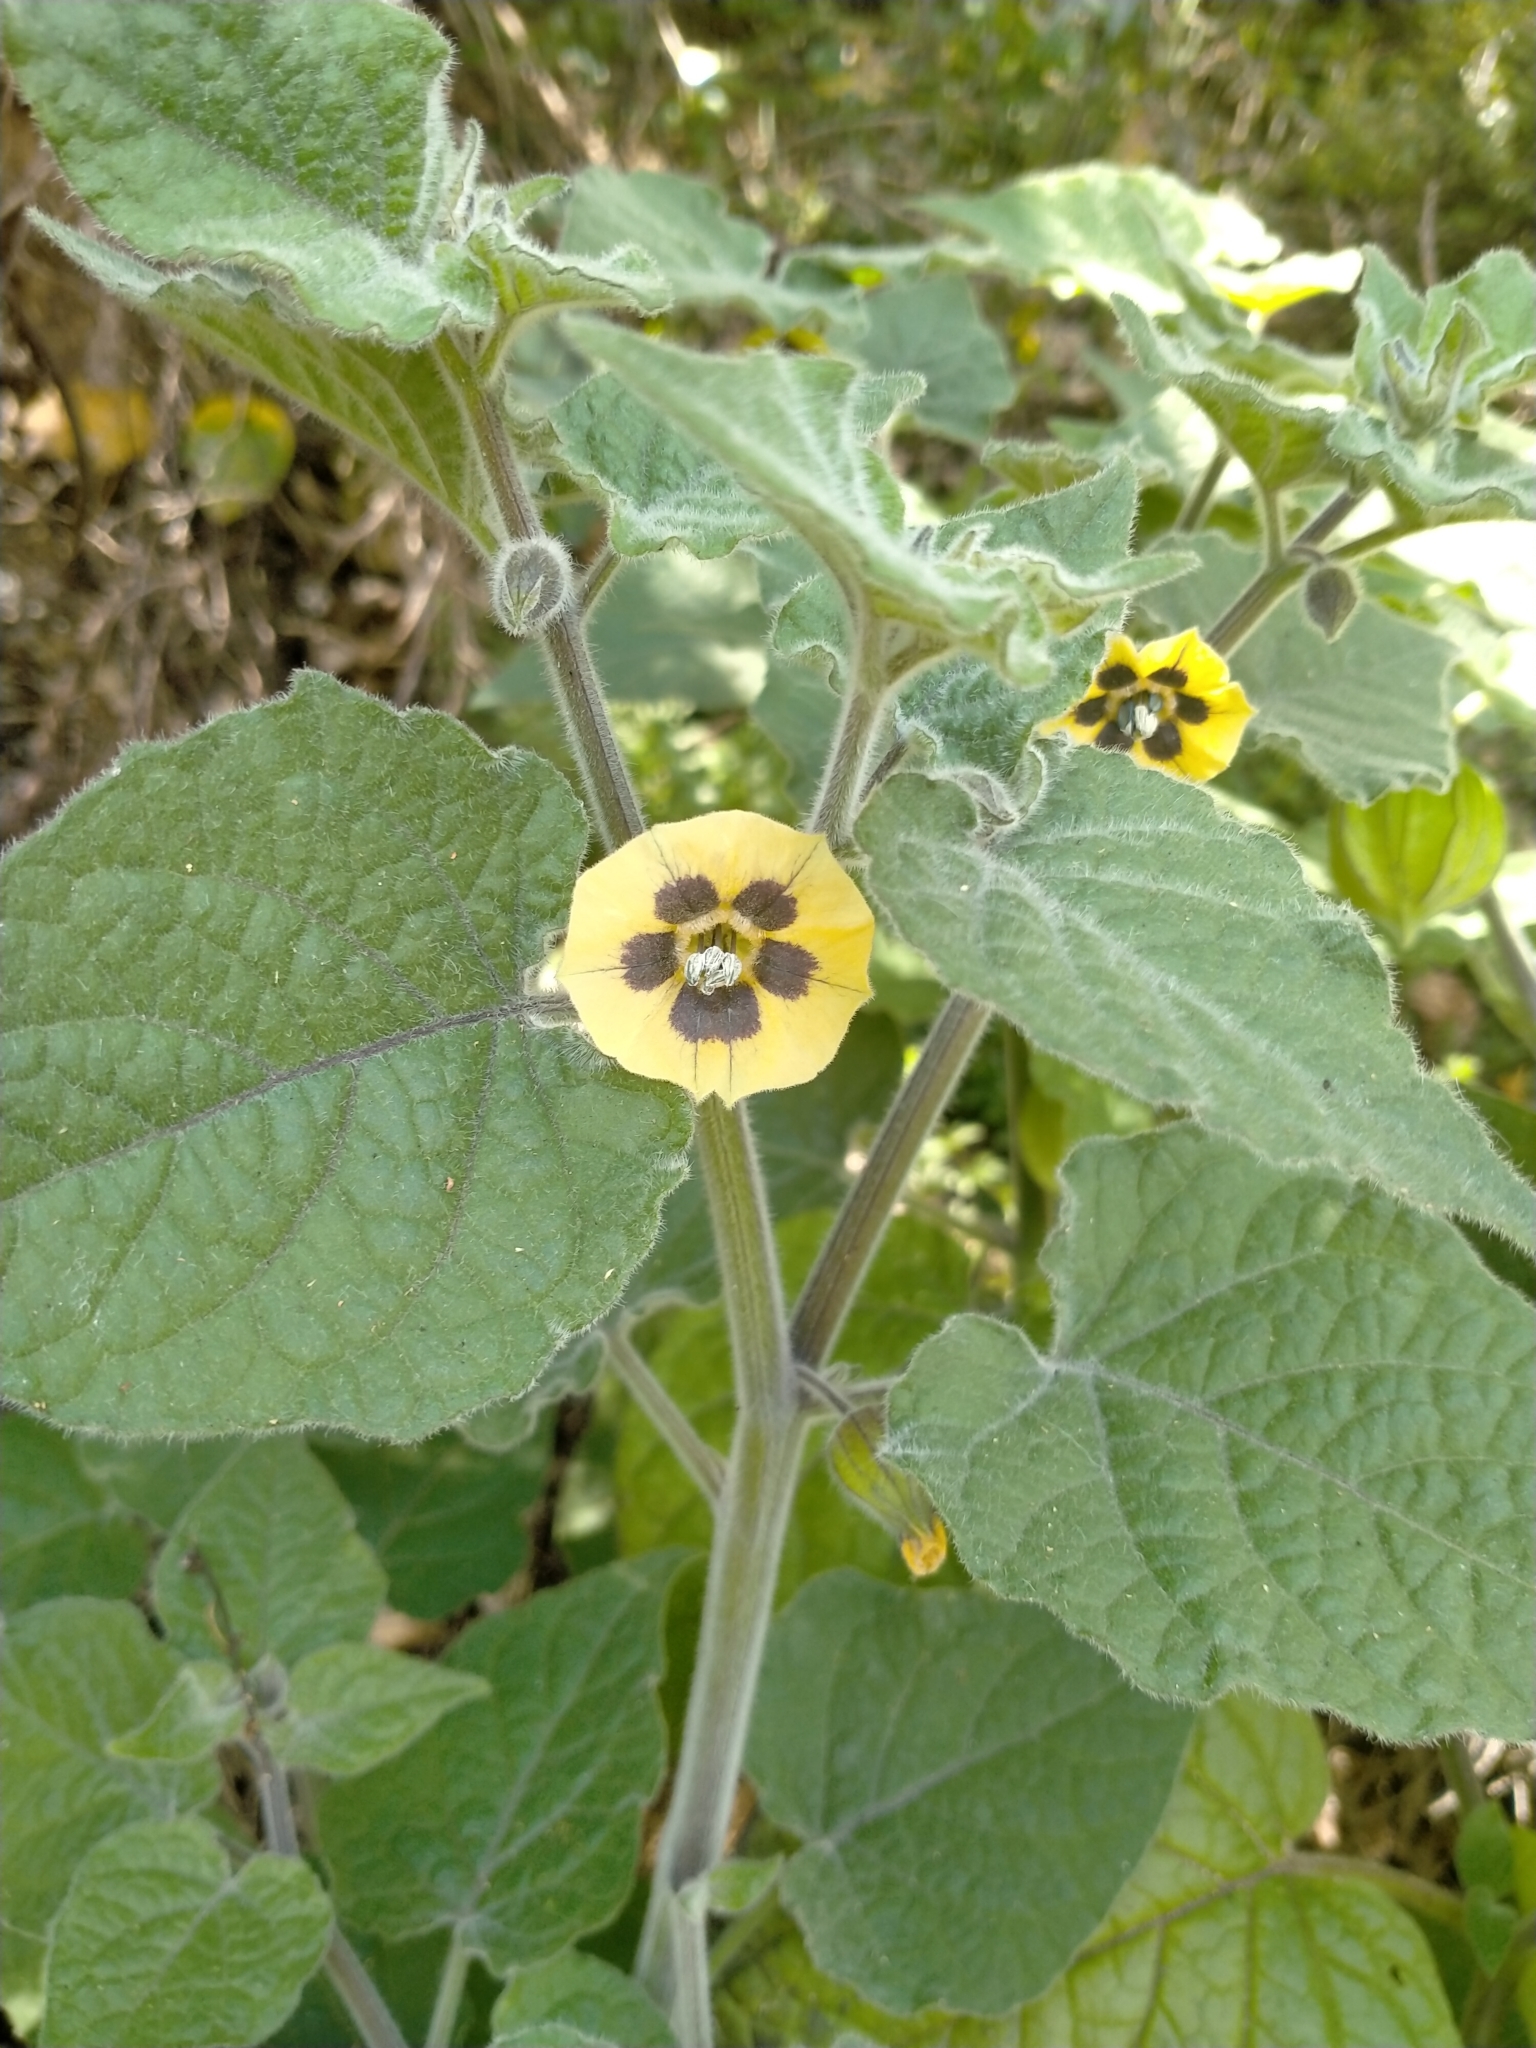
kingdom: Plantae
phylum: Tracheophyta
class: Magnoliopsida
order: Solanales
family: Solanaceae
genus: Physalis
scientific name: Physalis peruviana
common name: Cape-gooseberry
